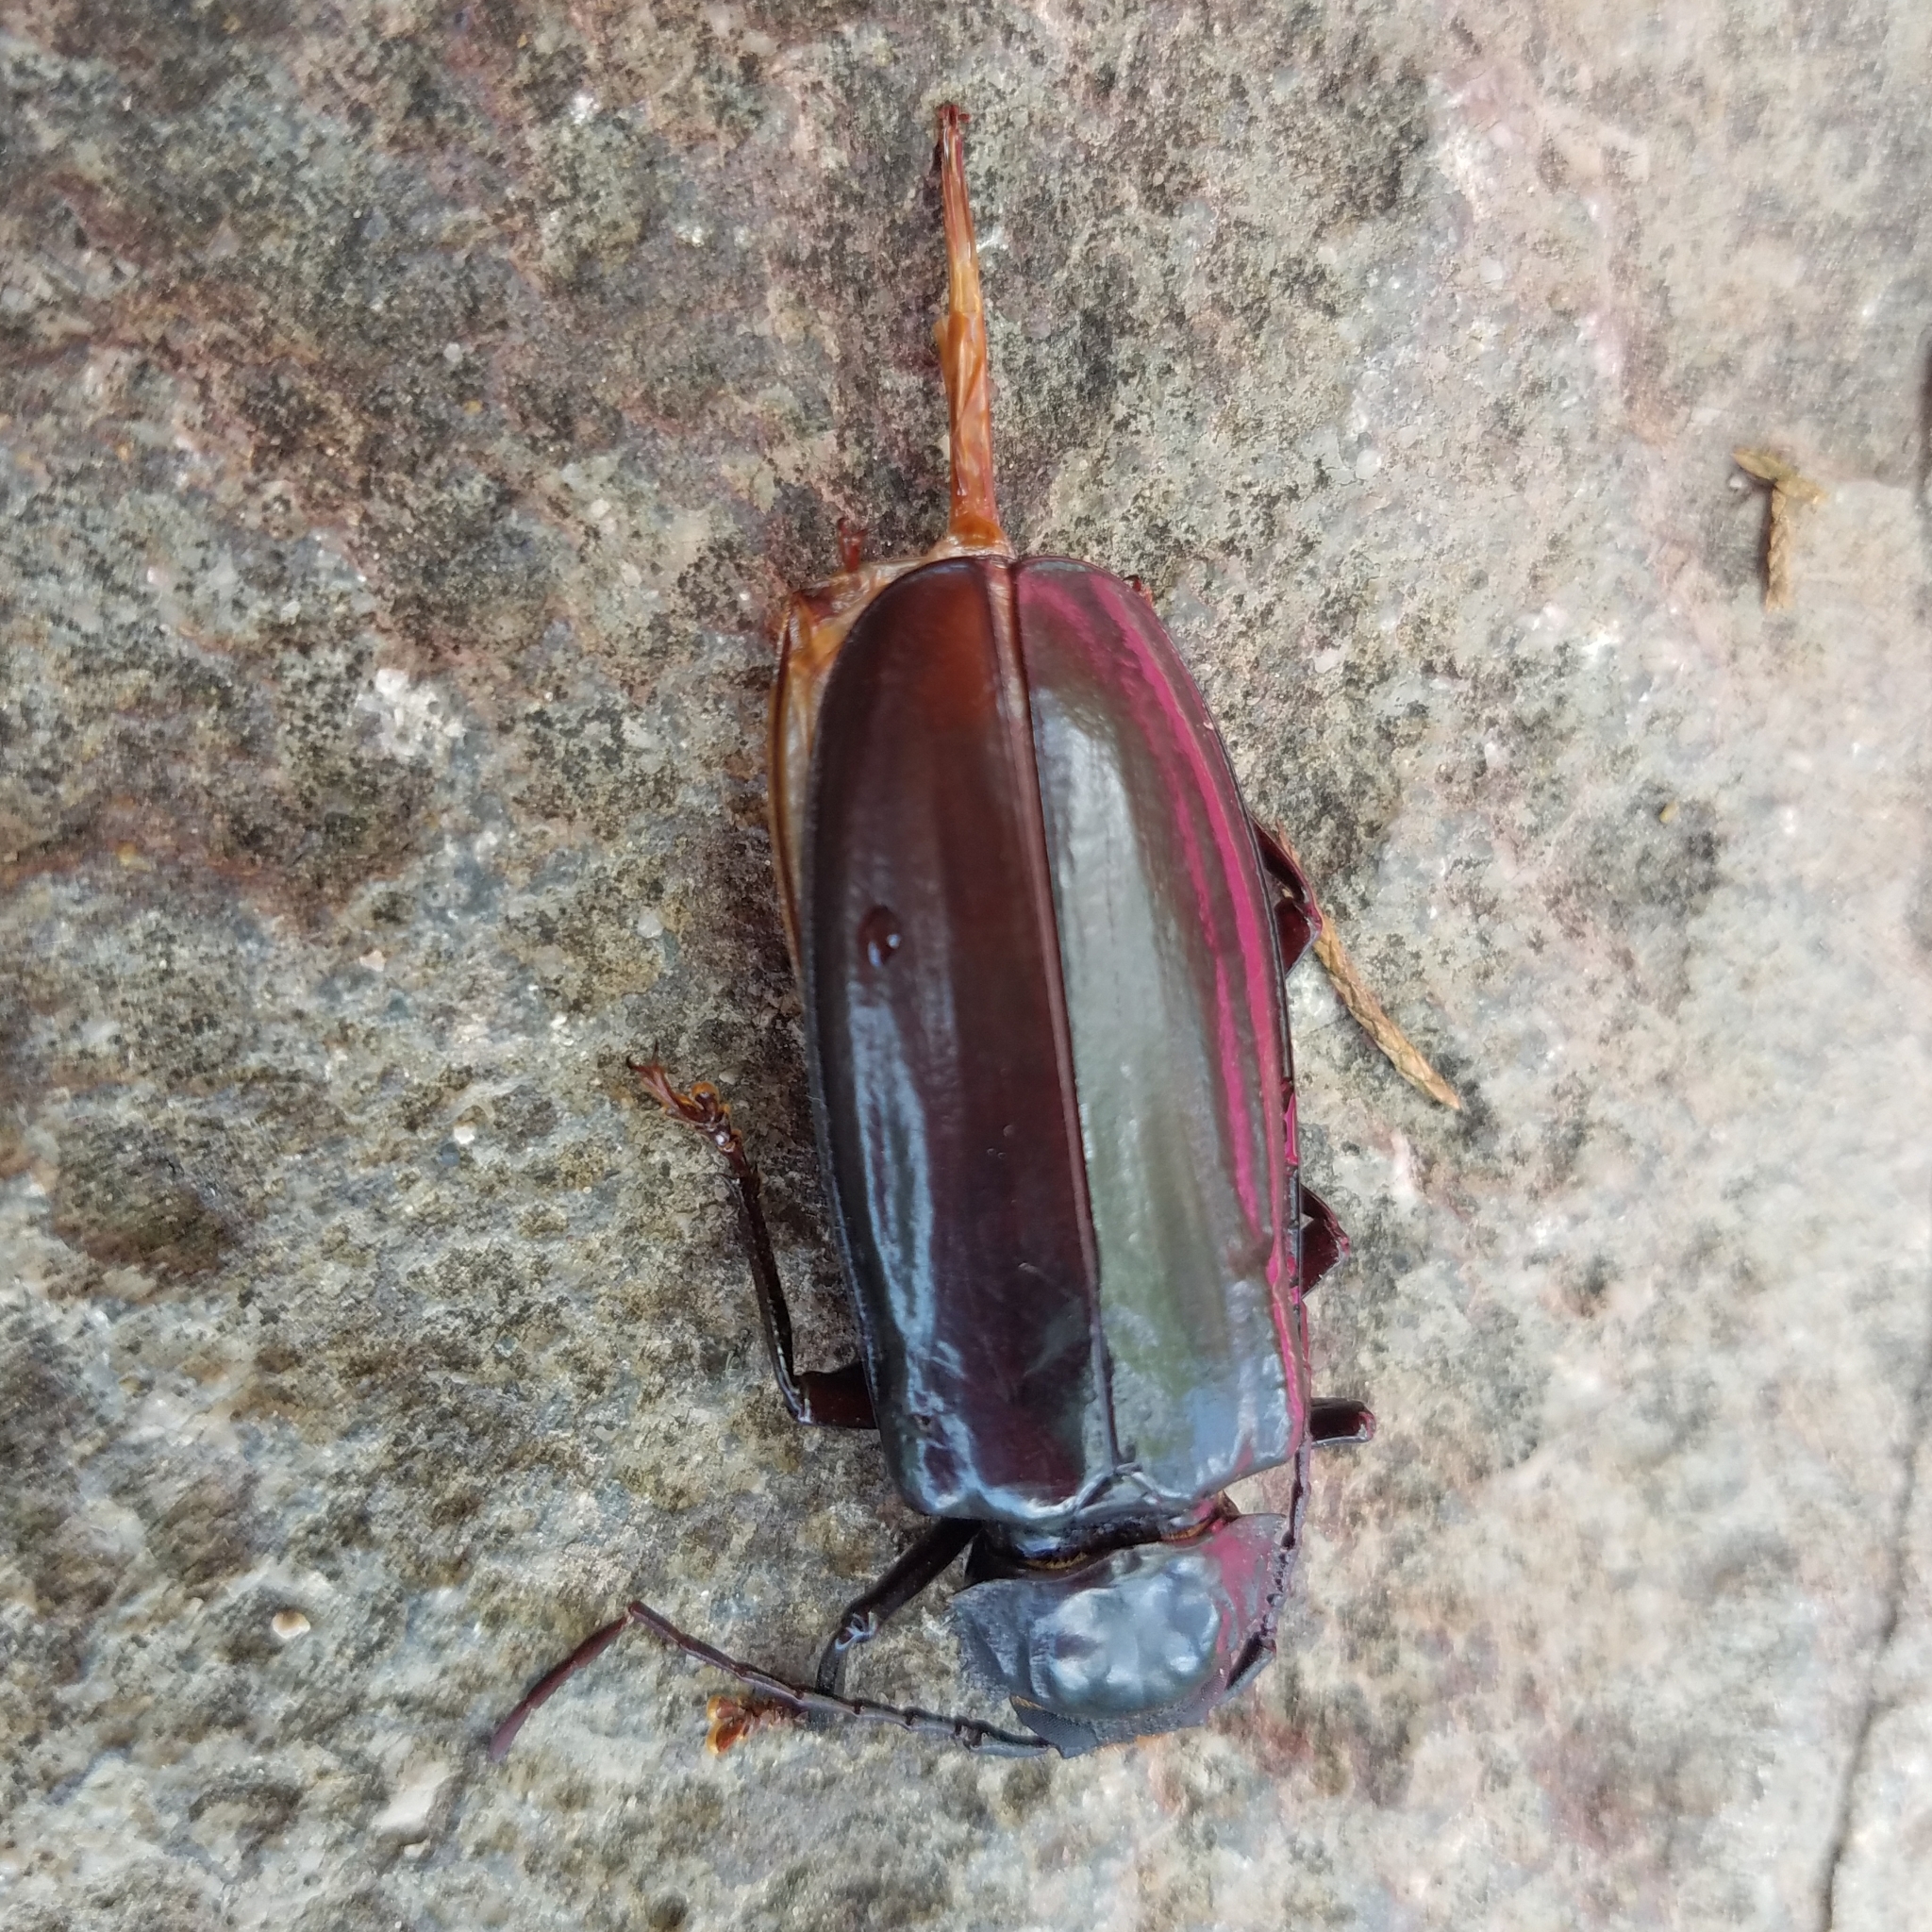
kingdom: Animalia
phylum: Arthropoda
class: Insecta
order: Coleoptera
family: Cerambycidae
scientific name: Cerambycidae
